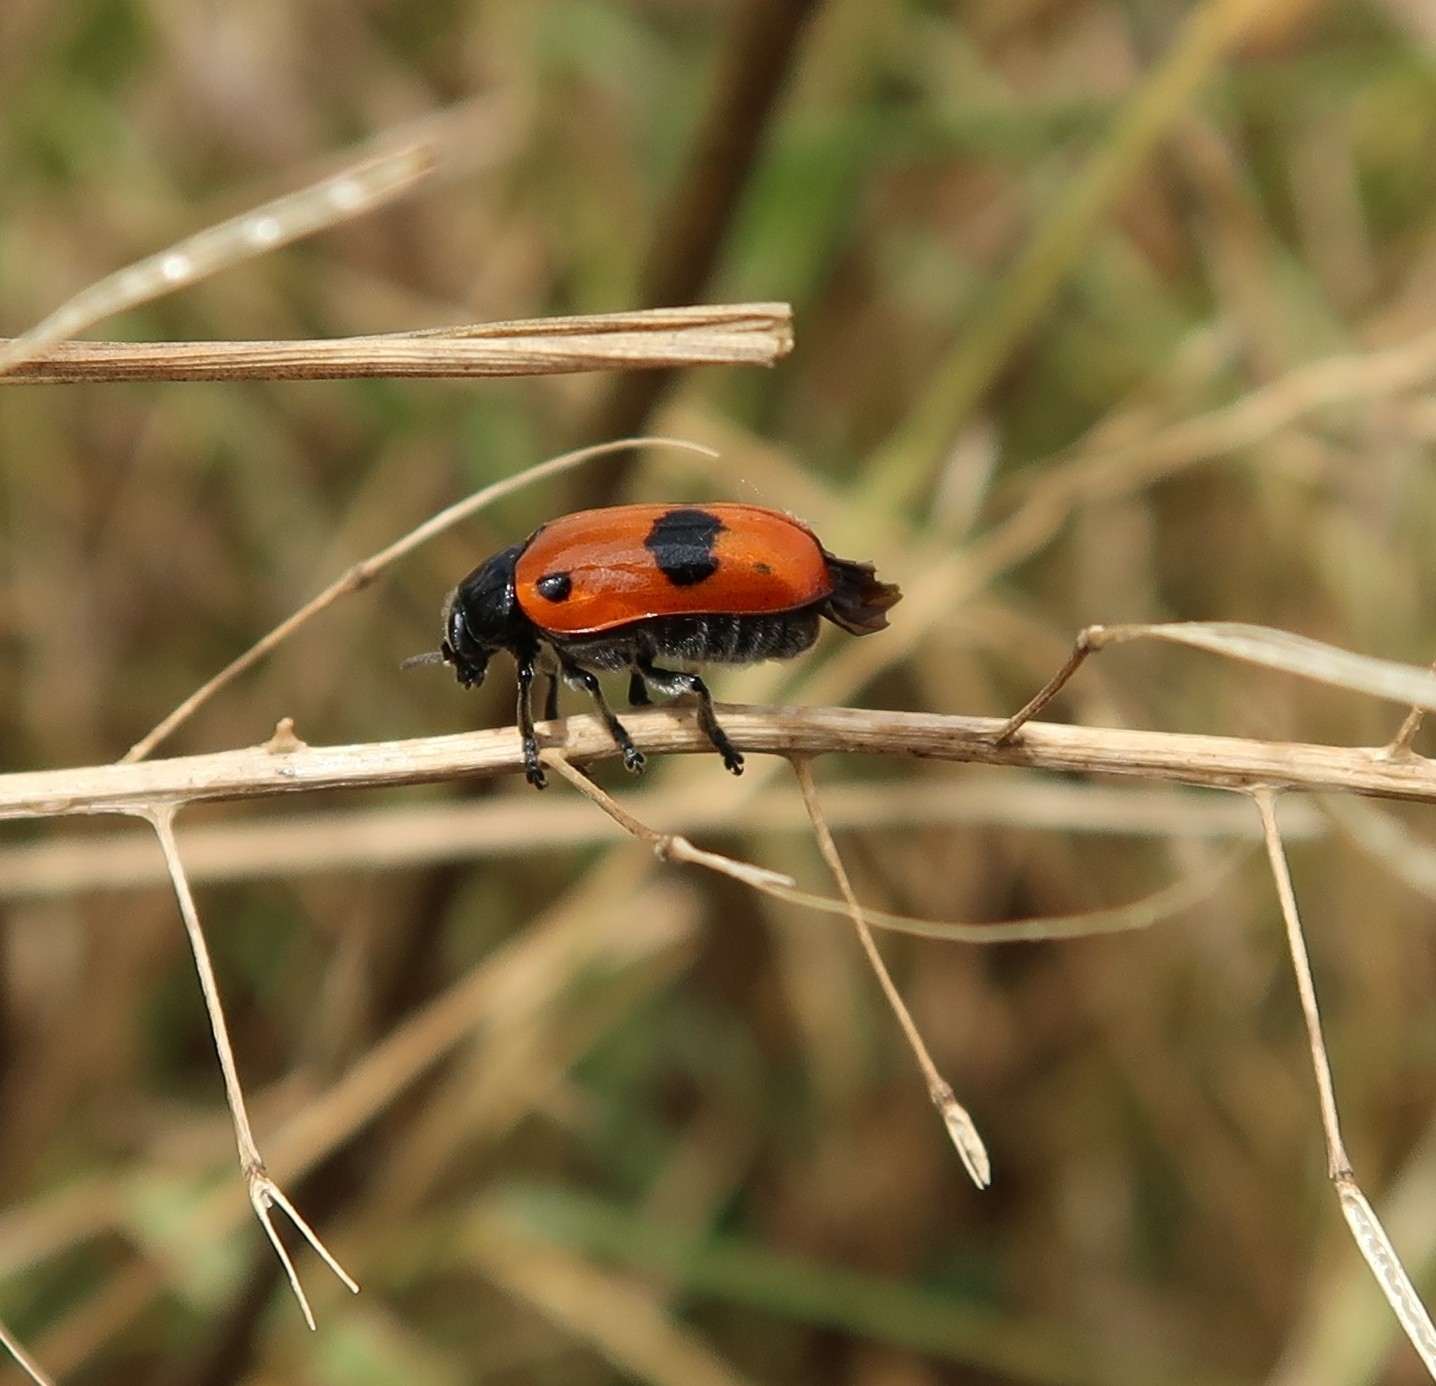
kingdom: Animalia
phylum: Arthropoda
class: Insecta
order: Coleoptera
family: Chrysomelidae
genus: Clytra
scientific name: Clytra laeviuscula
